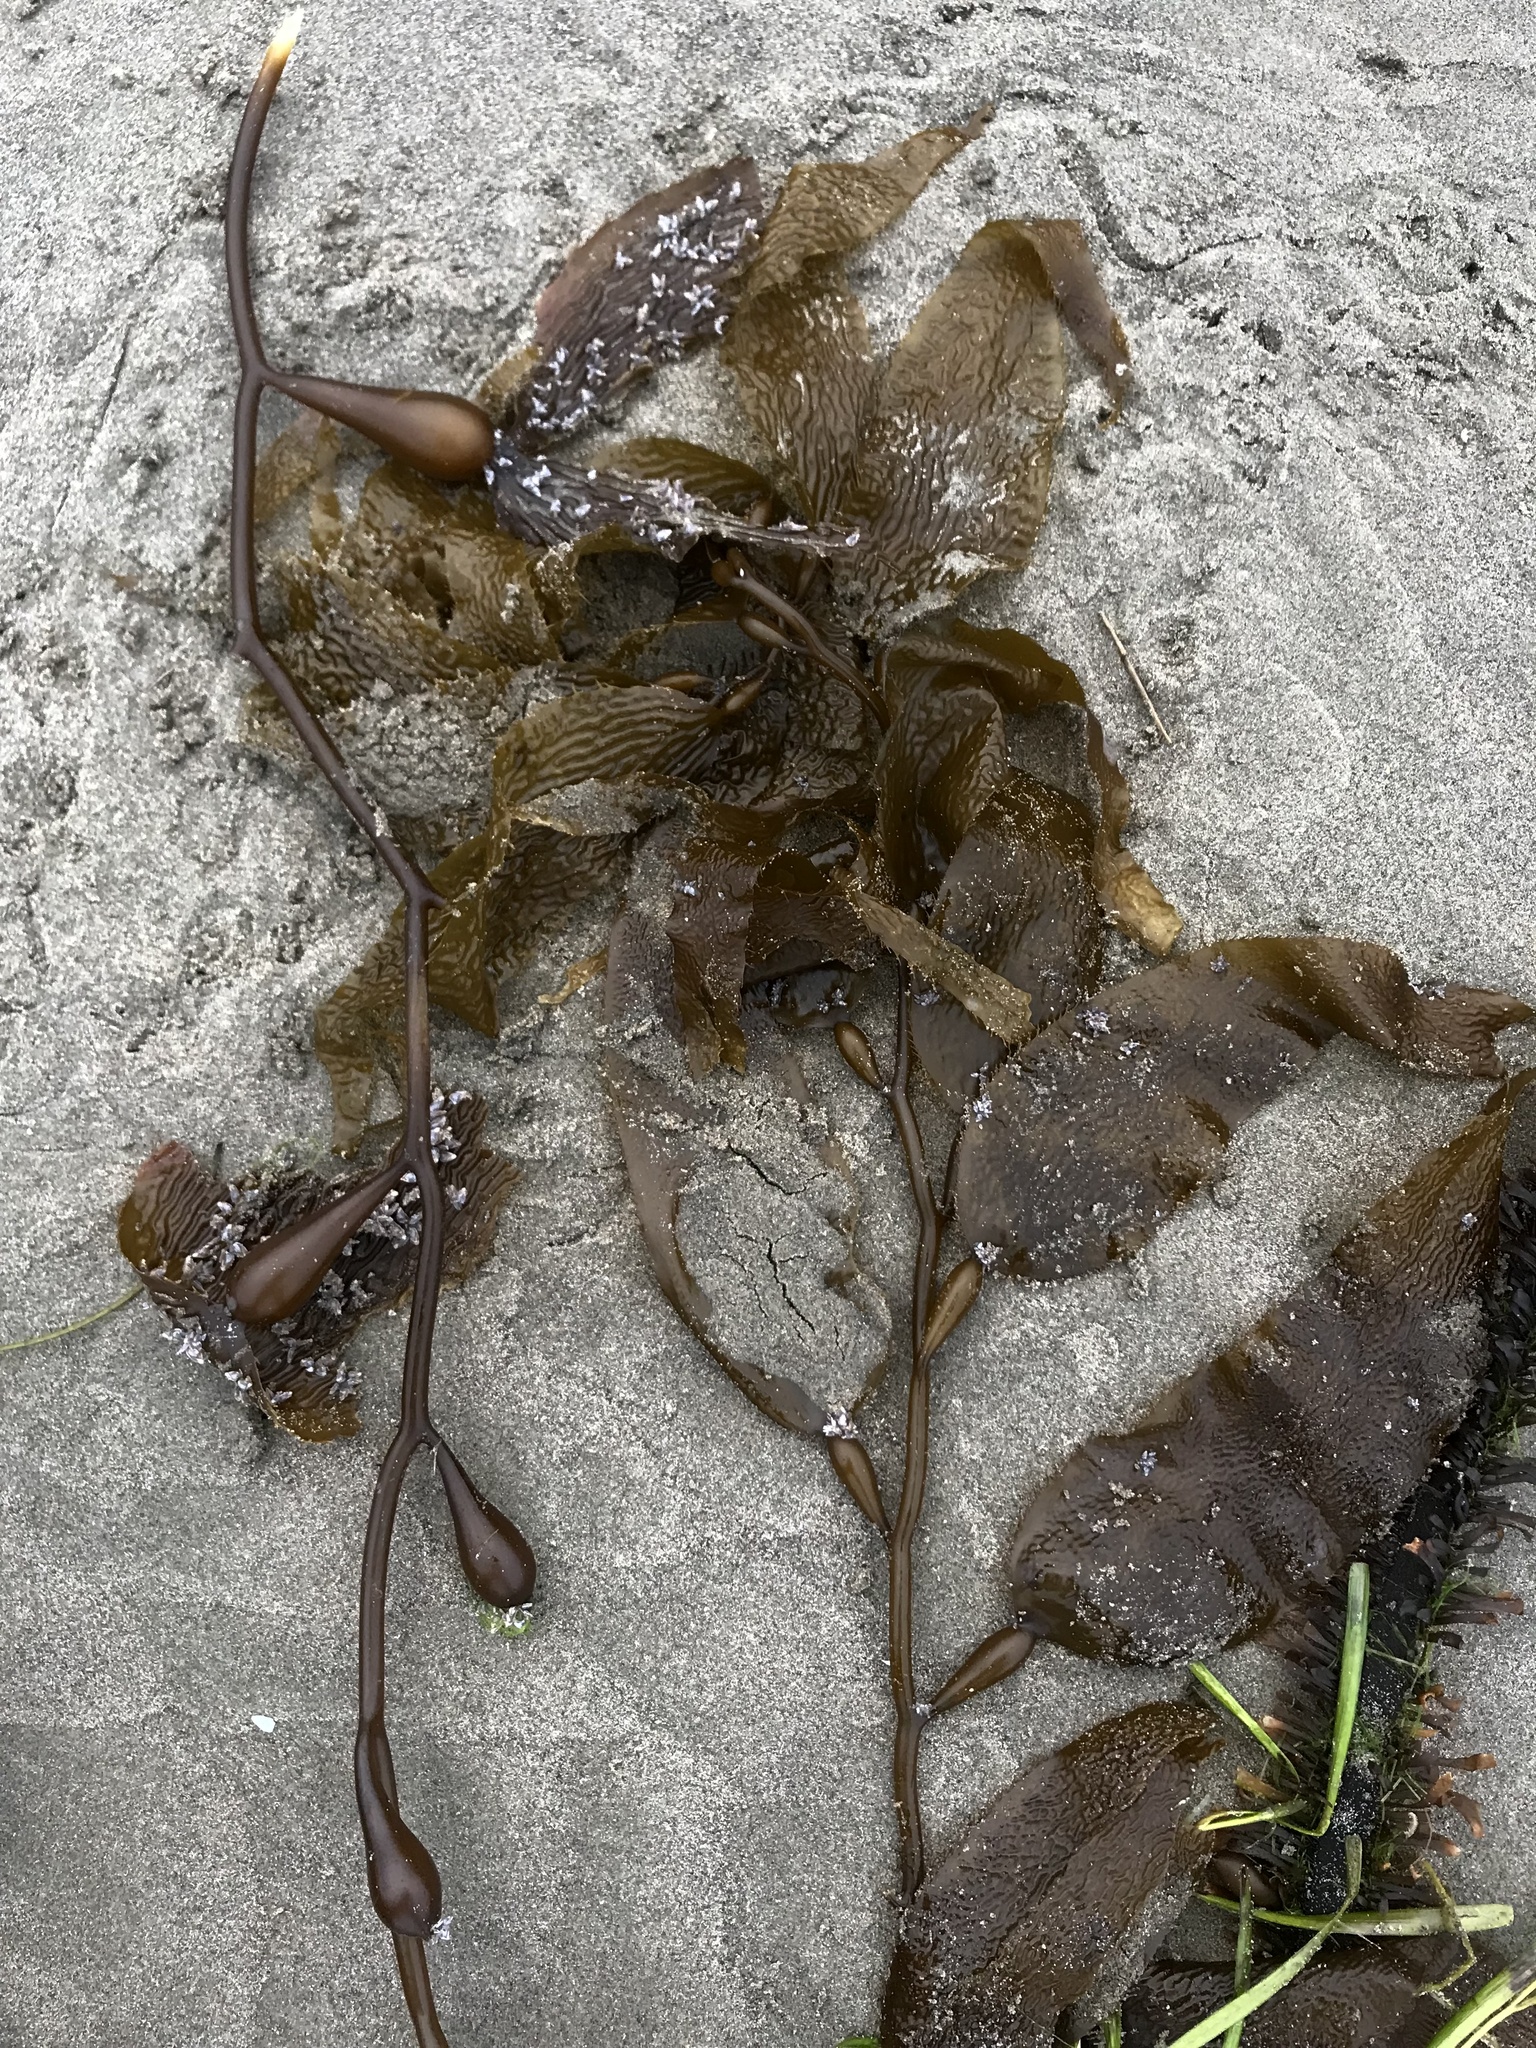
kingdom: Chromista
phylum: Ochrophyta
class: Phaeophyceae
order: Laminariales
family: Laminariaceae
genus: Macrocystis
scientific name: Macrocystis pyrifera
